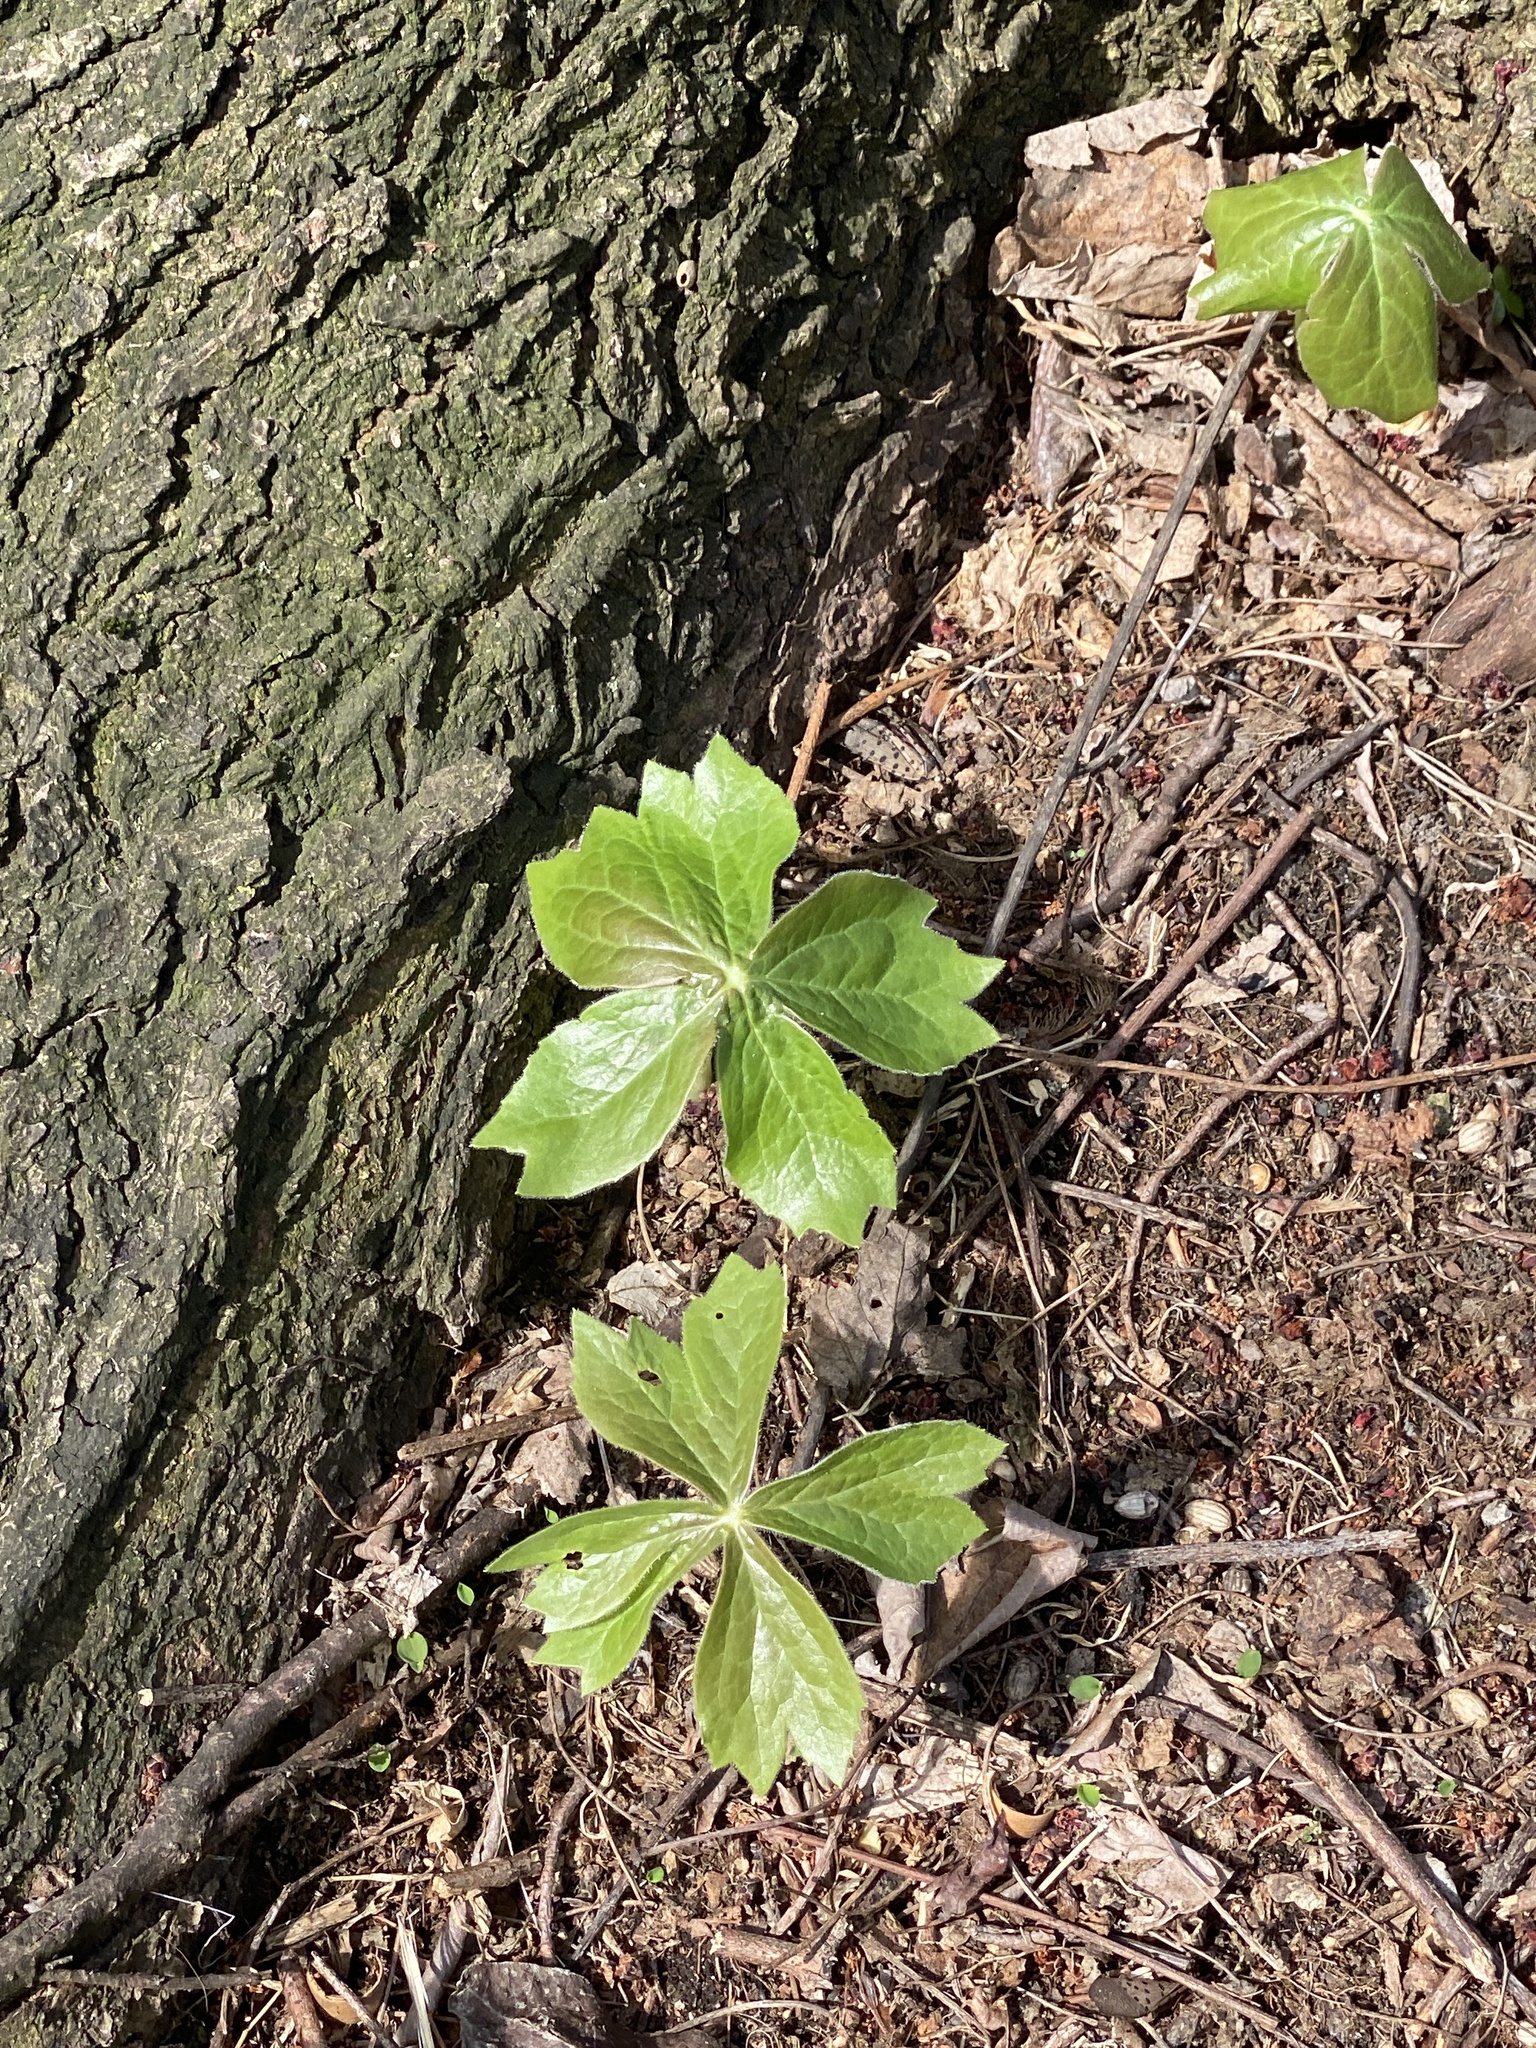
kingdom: Plantae
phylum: Tracheophyta
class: Magnoliopsida
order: Ranunculales
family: Berberidaceae
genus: Podophyllum
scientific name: Podophyllum peltatum
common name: Wild mandrake
